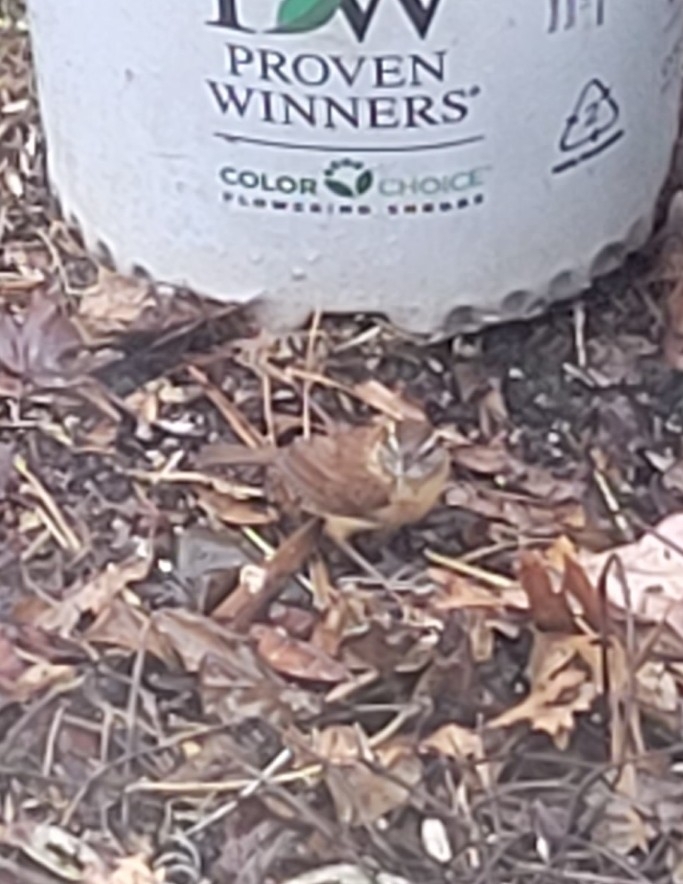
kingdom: Animalia
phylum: Chordata
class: Aves
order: Passeriformes
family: Troglodytidae
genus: Thryothorus
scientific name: Thryothorus ludovicianus
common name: Carolina wren
